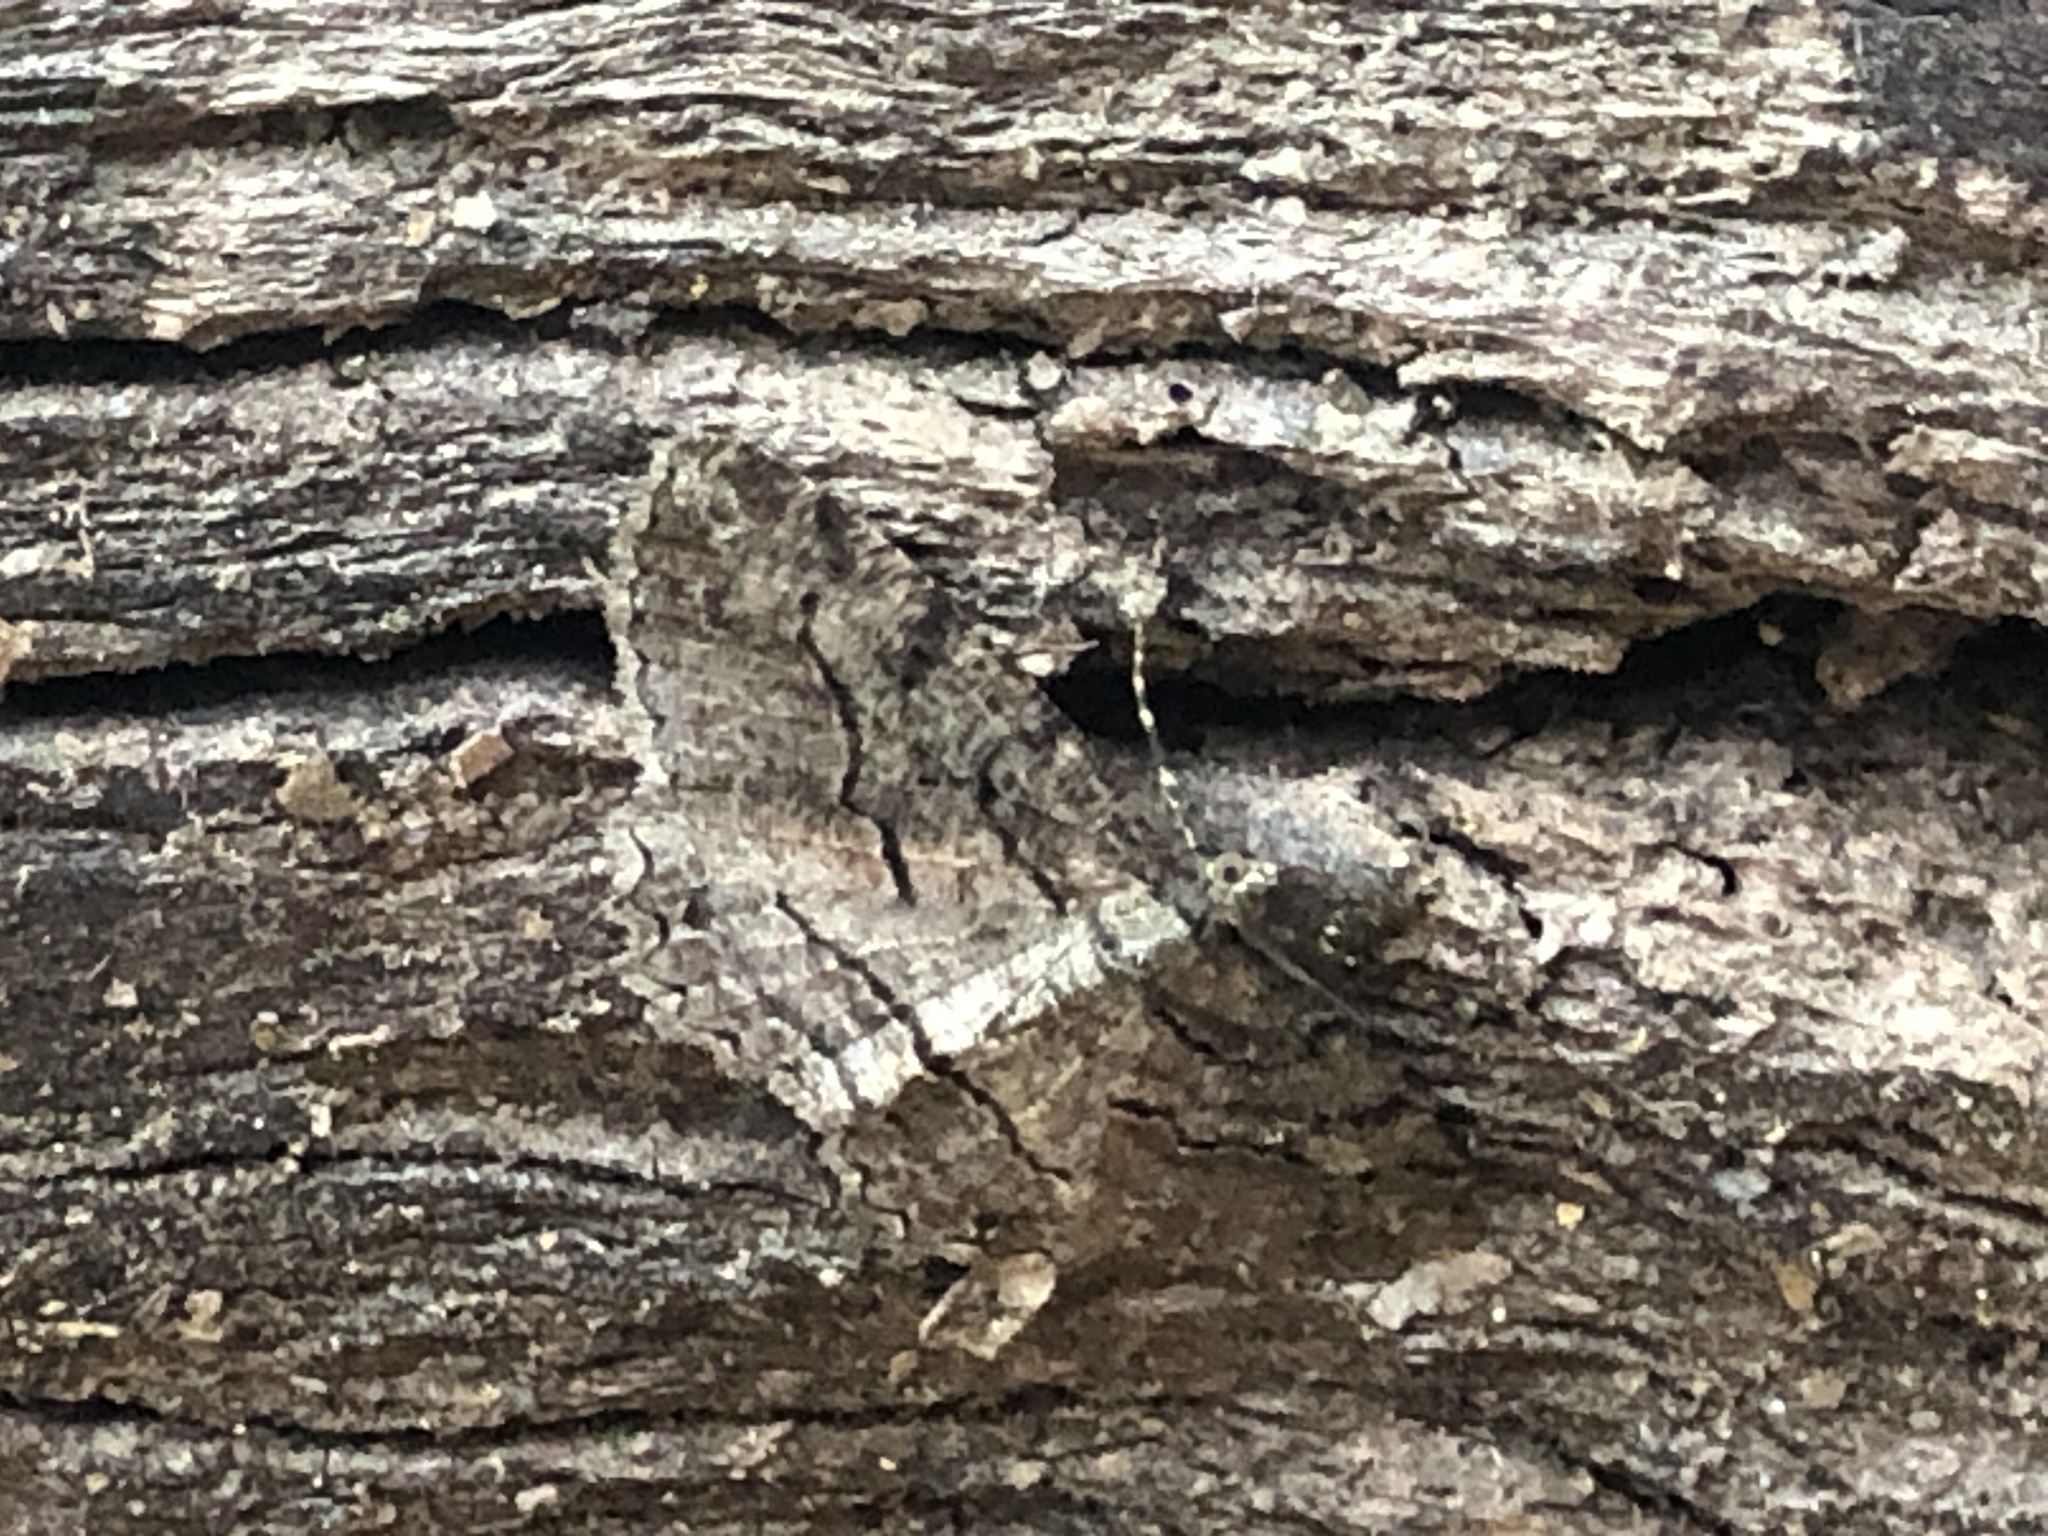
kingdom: Animalia
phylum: Arthropoda
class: Insecta
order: Lepidoptera
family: Geometridae
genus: Neoalcis
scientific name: Neoalcis californiaria
